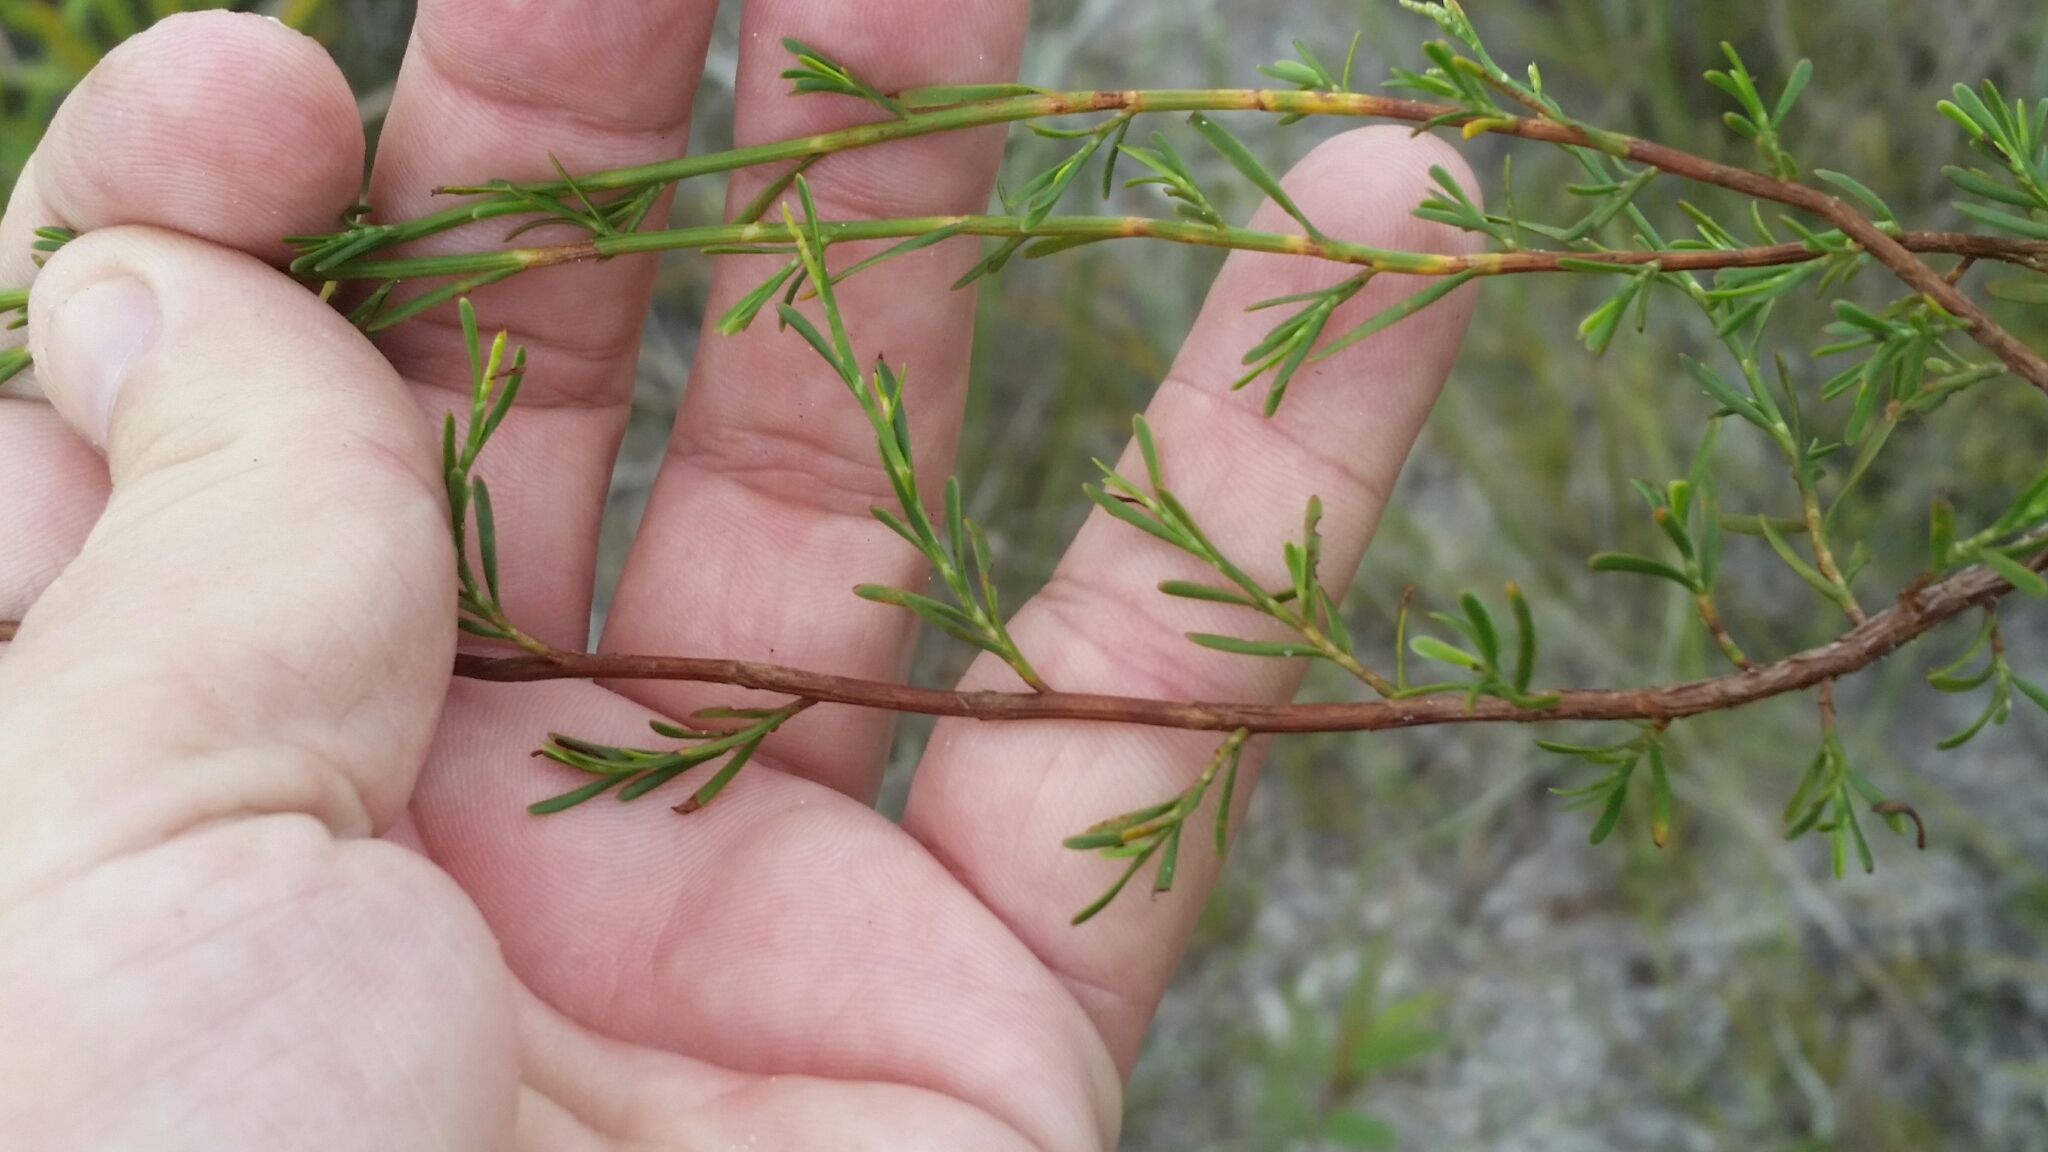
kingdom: Plantae
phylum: Tracheophyta
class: Magnoliopsida
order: Caryophyllales
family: Polygonaceae
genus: Polygonella
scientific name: Polygonella polygama
